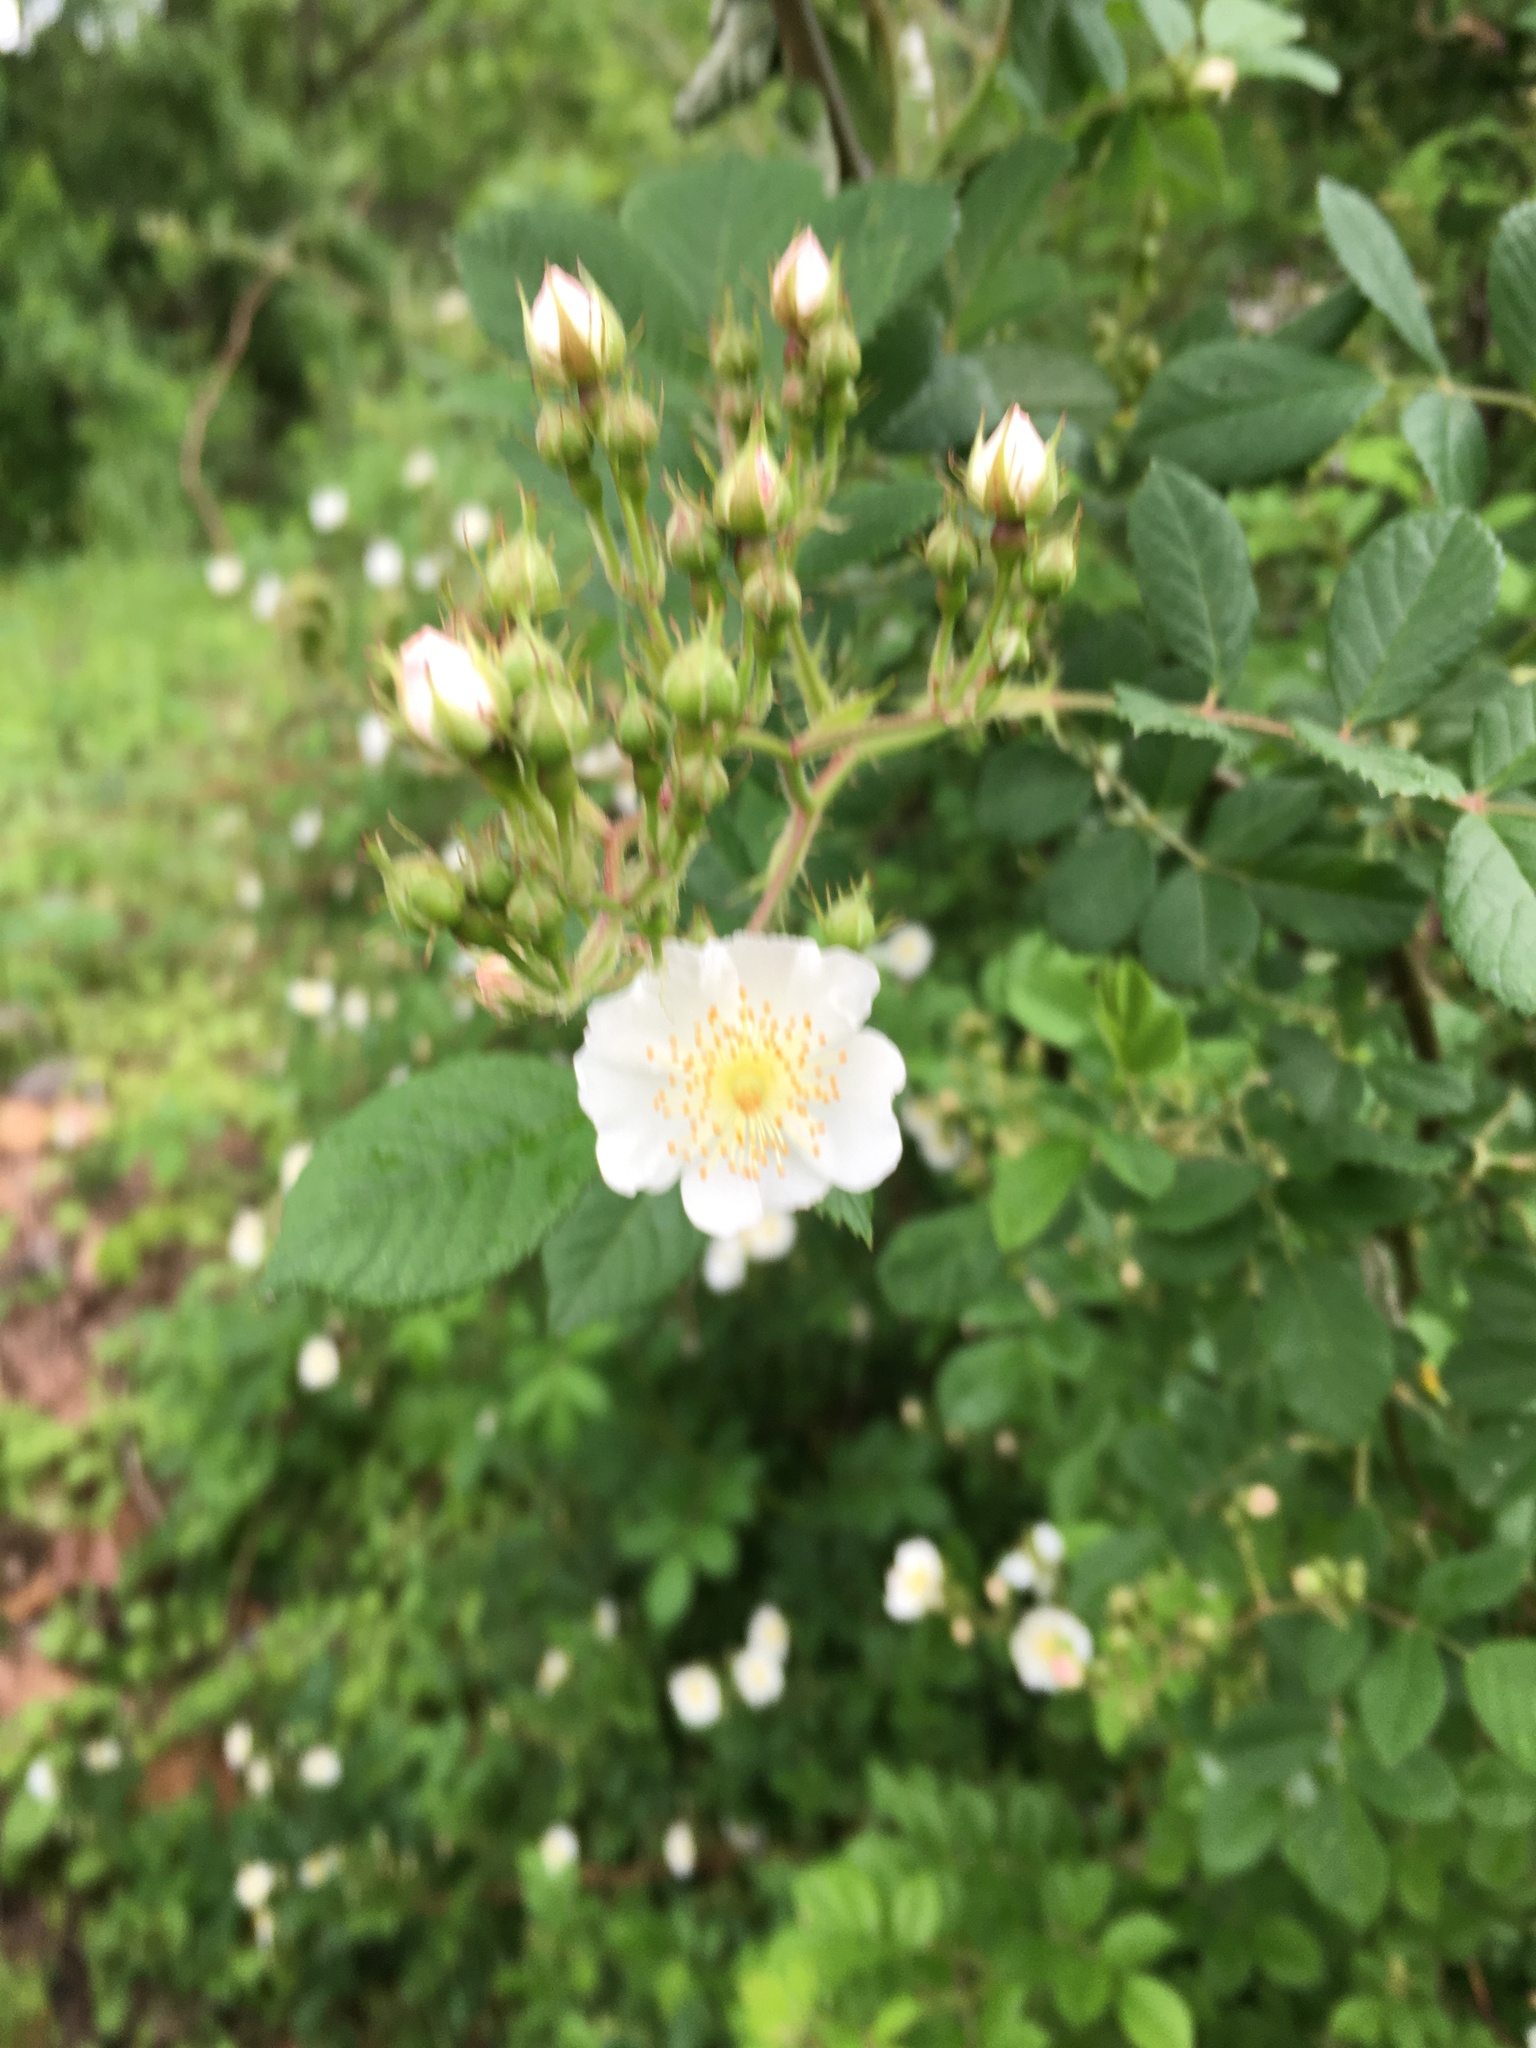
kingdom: Plantae
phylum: Tracheophyta
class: Magnoliopsida
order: Rosales
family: Rosaceae
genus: Rosa
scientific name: Rosa multiflora
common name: Multiflora rose
